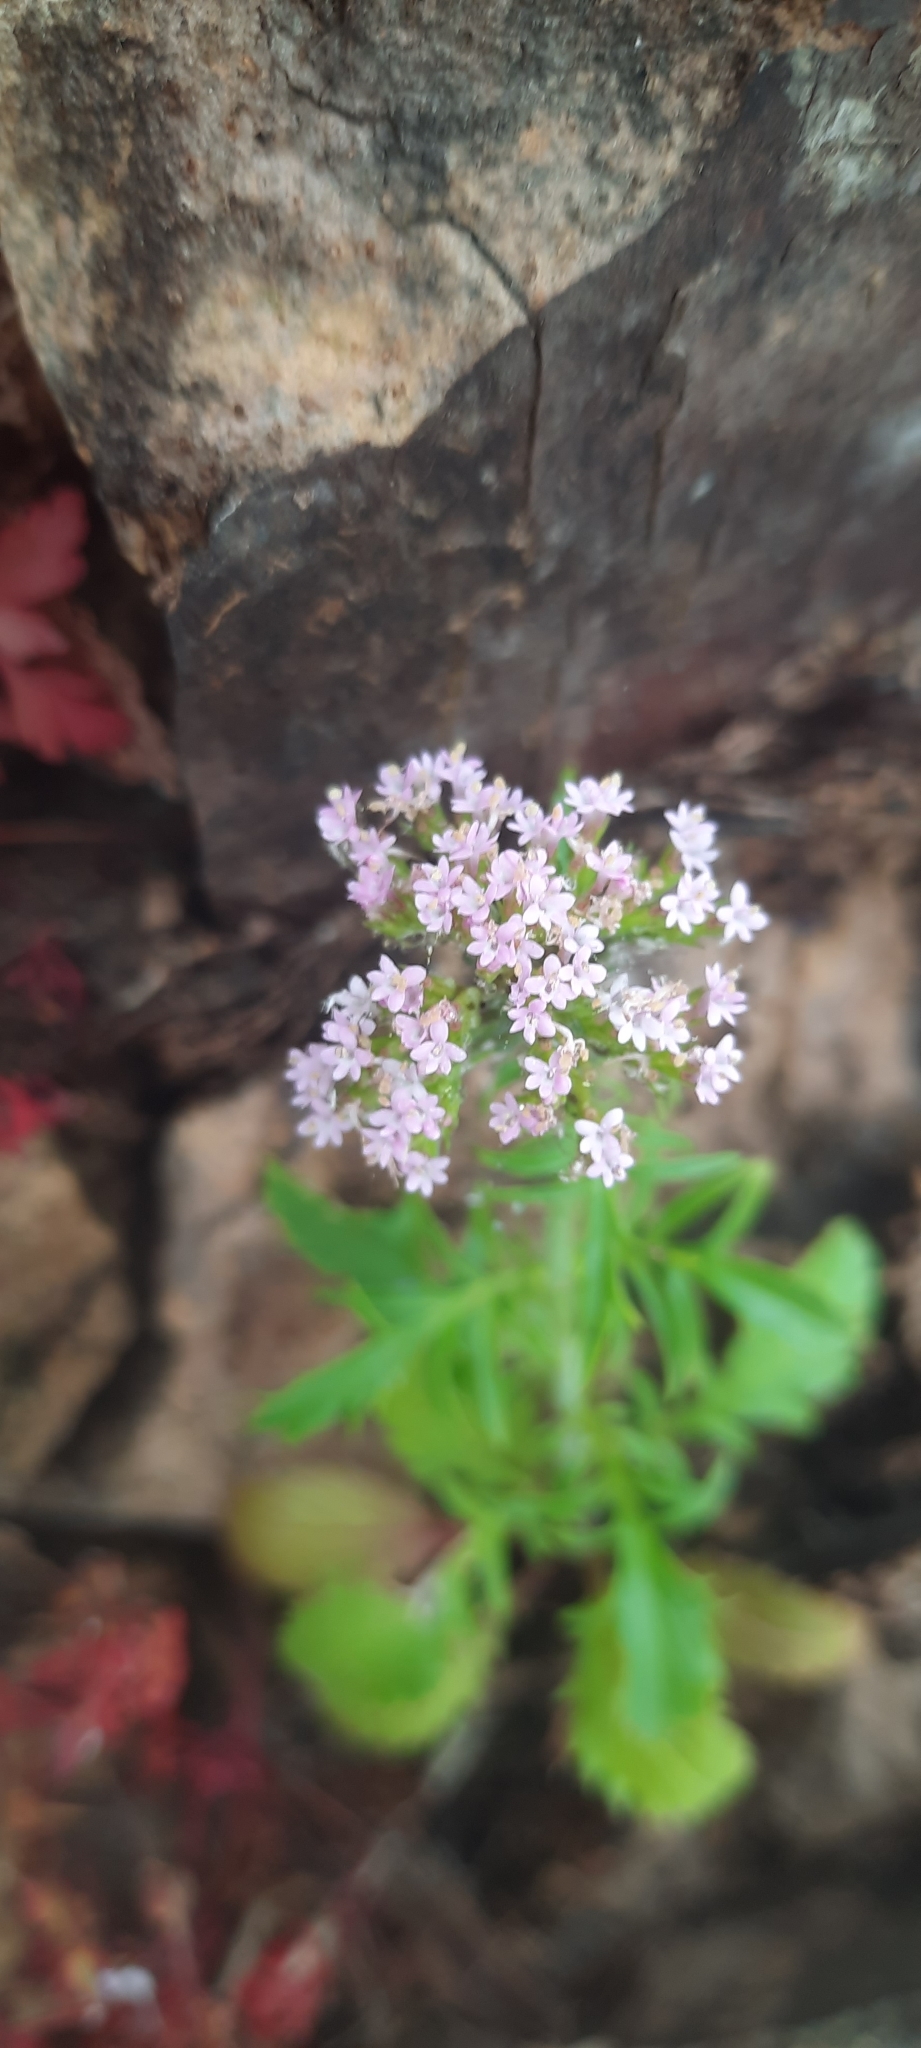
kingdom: Plantae
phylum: Tracheophyta
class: Magnoliopsida
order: Dipsacales
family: Caprifoliaceae
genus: Centranthus
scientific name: Centranthus calcitrapae
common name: Annual valerian
